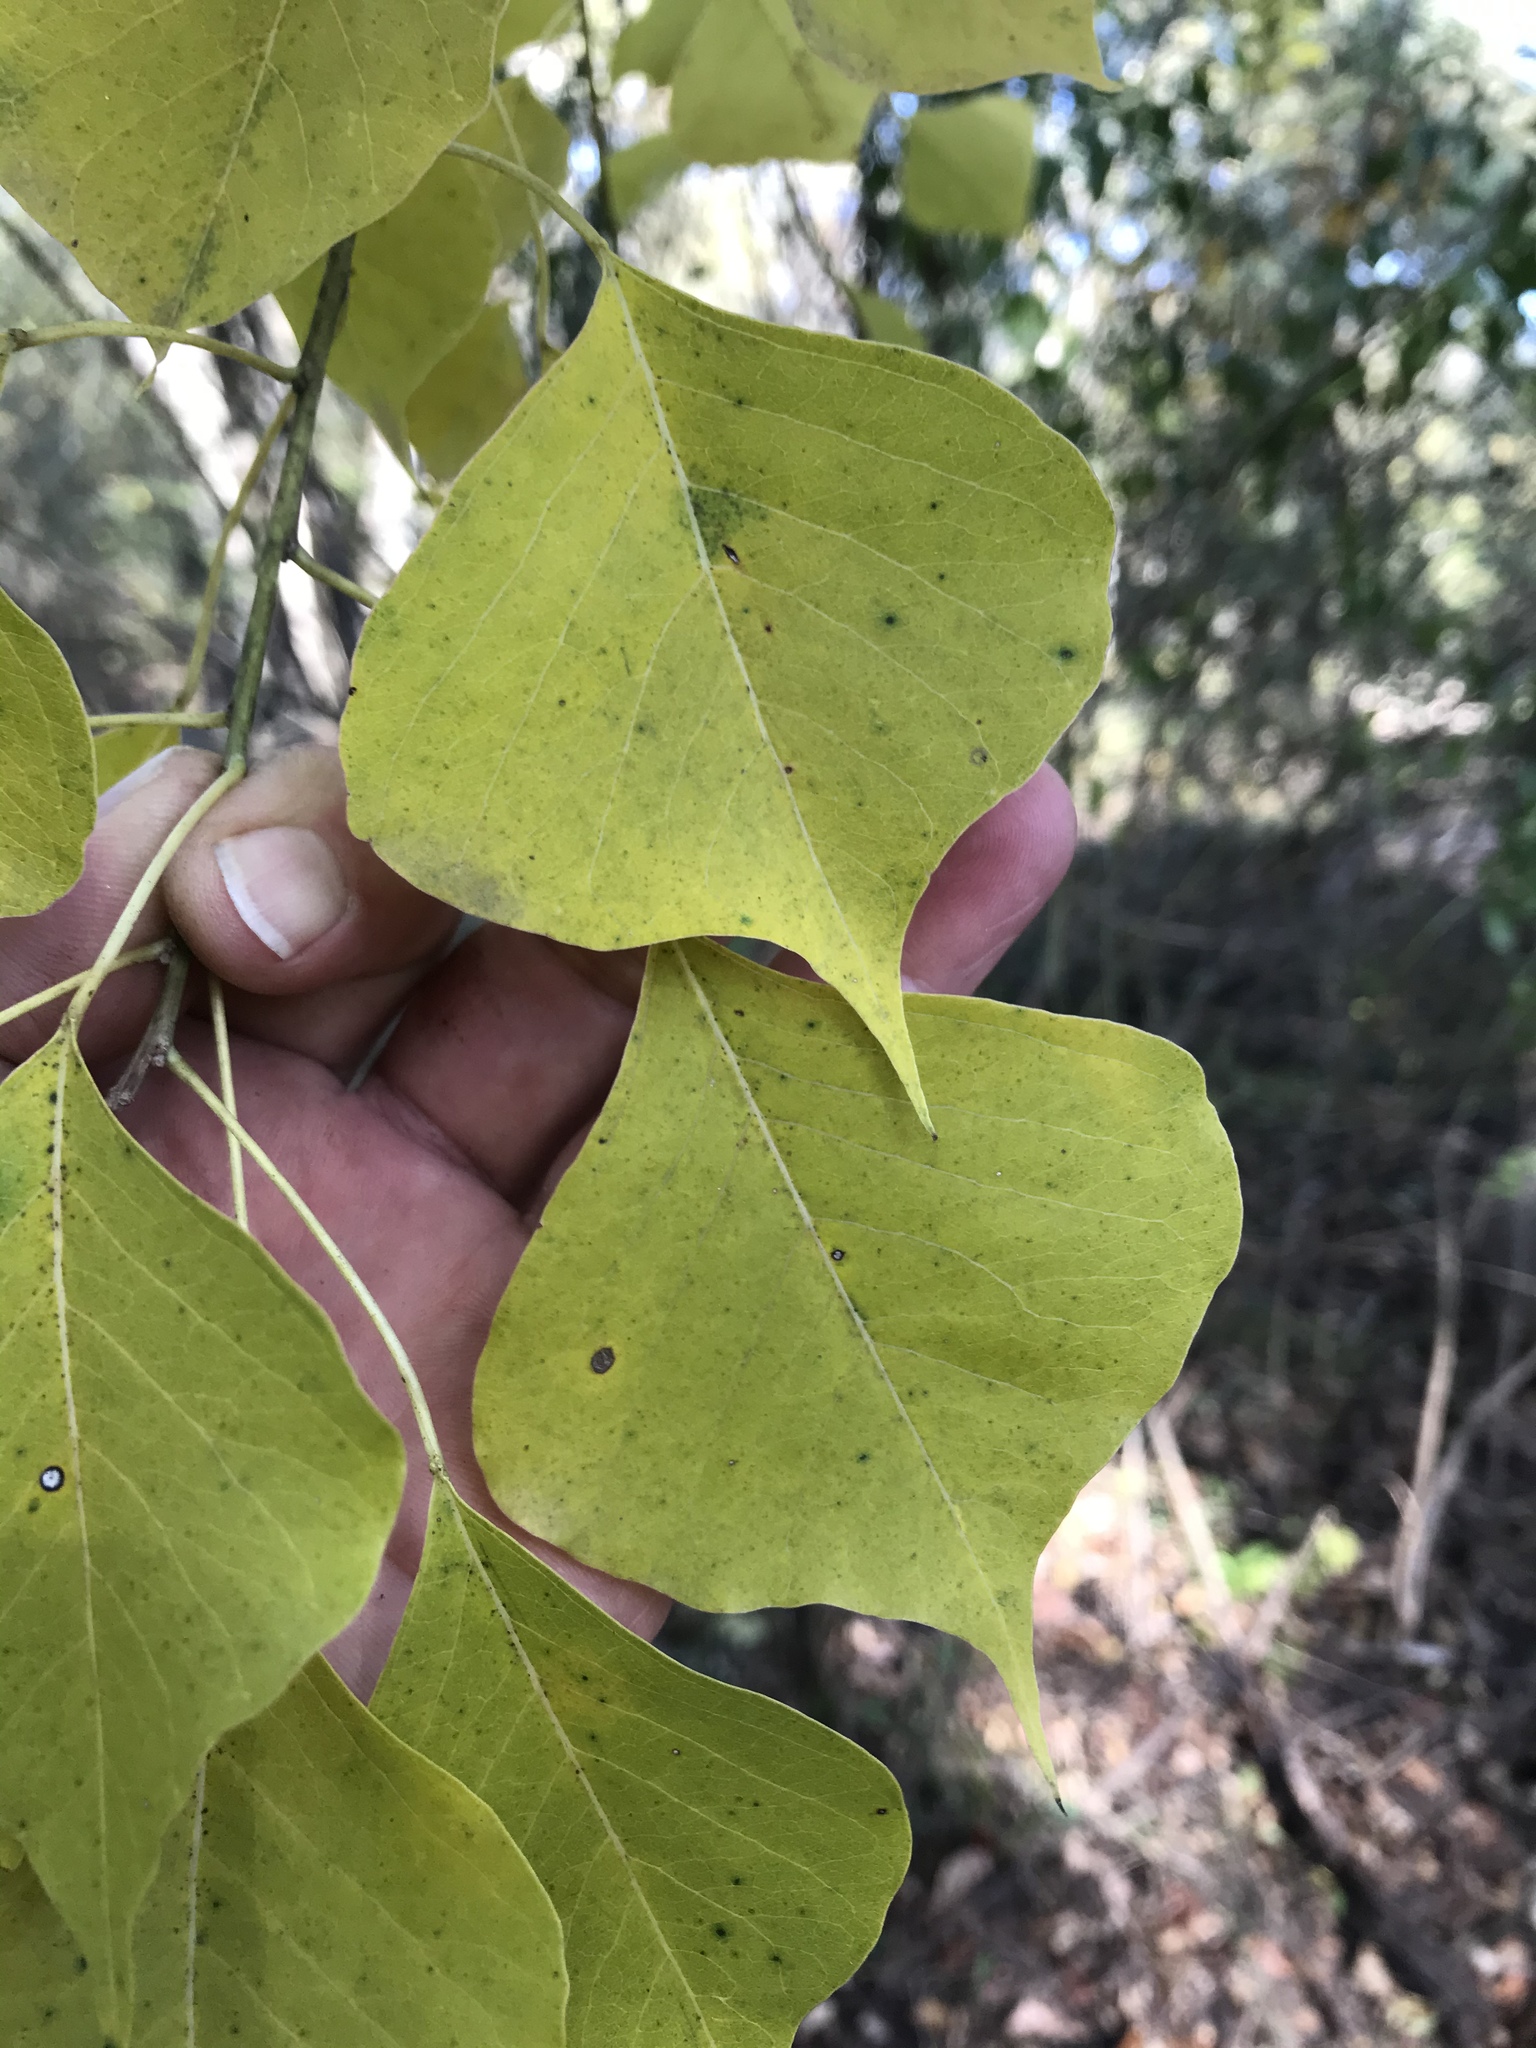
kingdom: Plantae
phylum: Tracheophyta
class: Magnoliopsida
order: Malpighiales
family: Euphorbiaceae
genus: Triadica
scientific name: Triadica sebifera
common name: Chinese tallow
